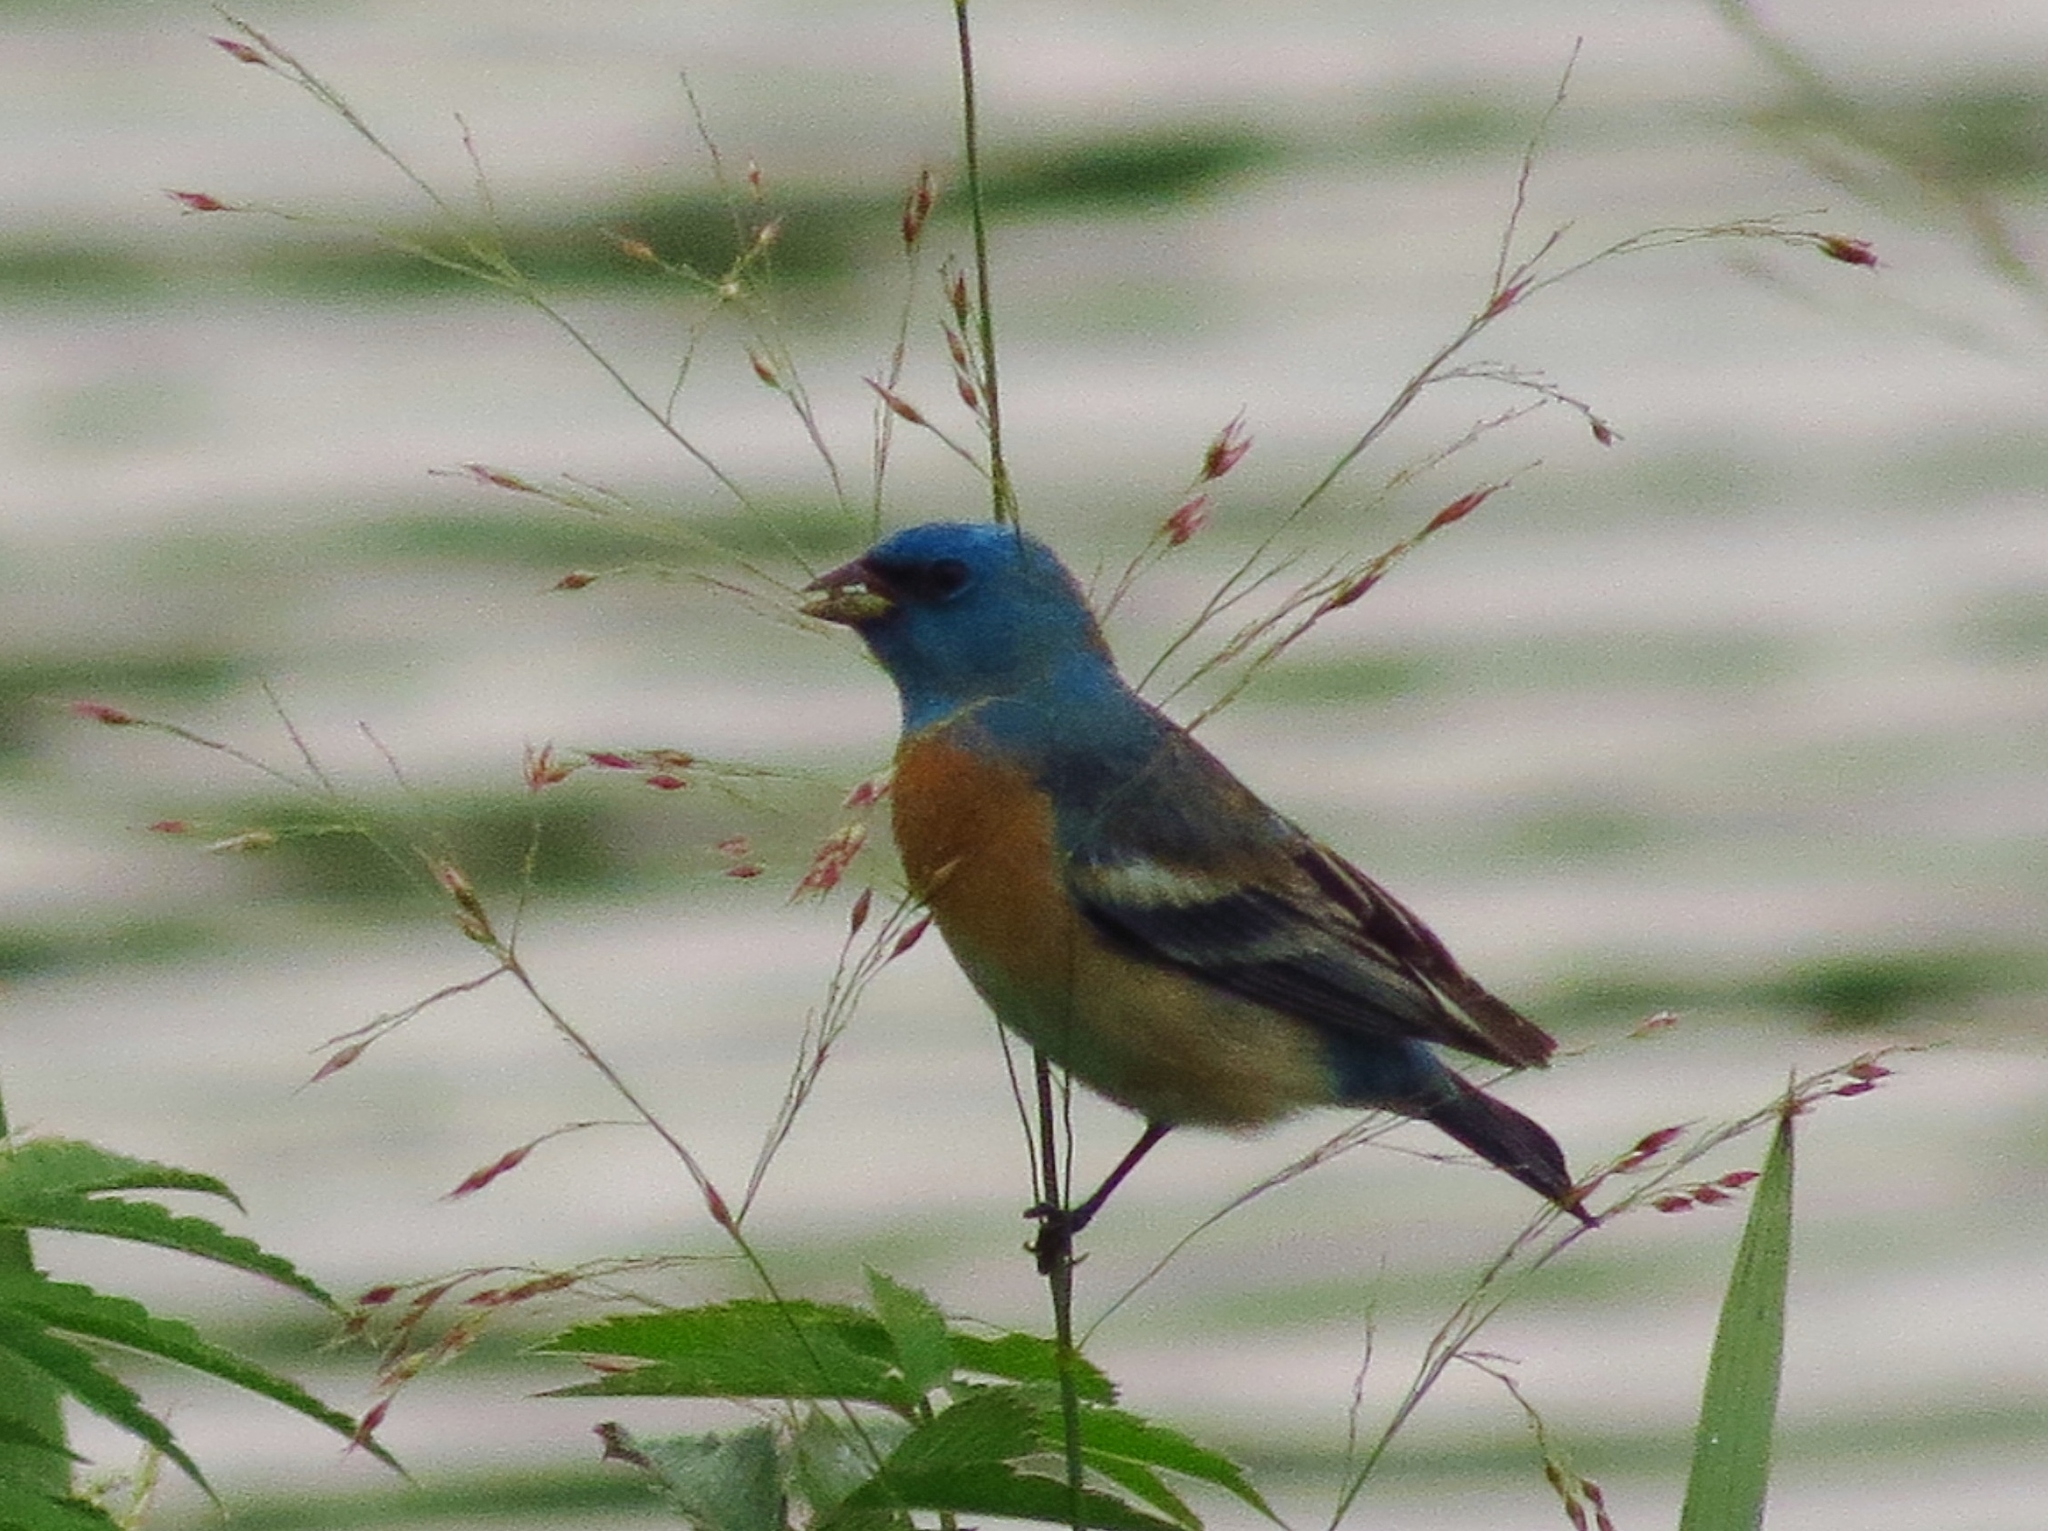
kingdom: Animalia
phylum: Chordata
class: Aves
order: Passeriformes
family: Cardinalidae
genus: Passerina
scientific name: Passerina amoena
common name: Lazuli bunting
